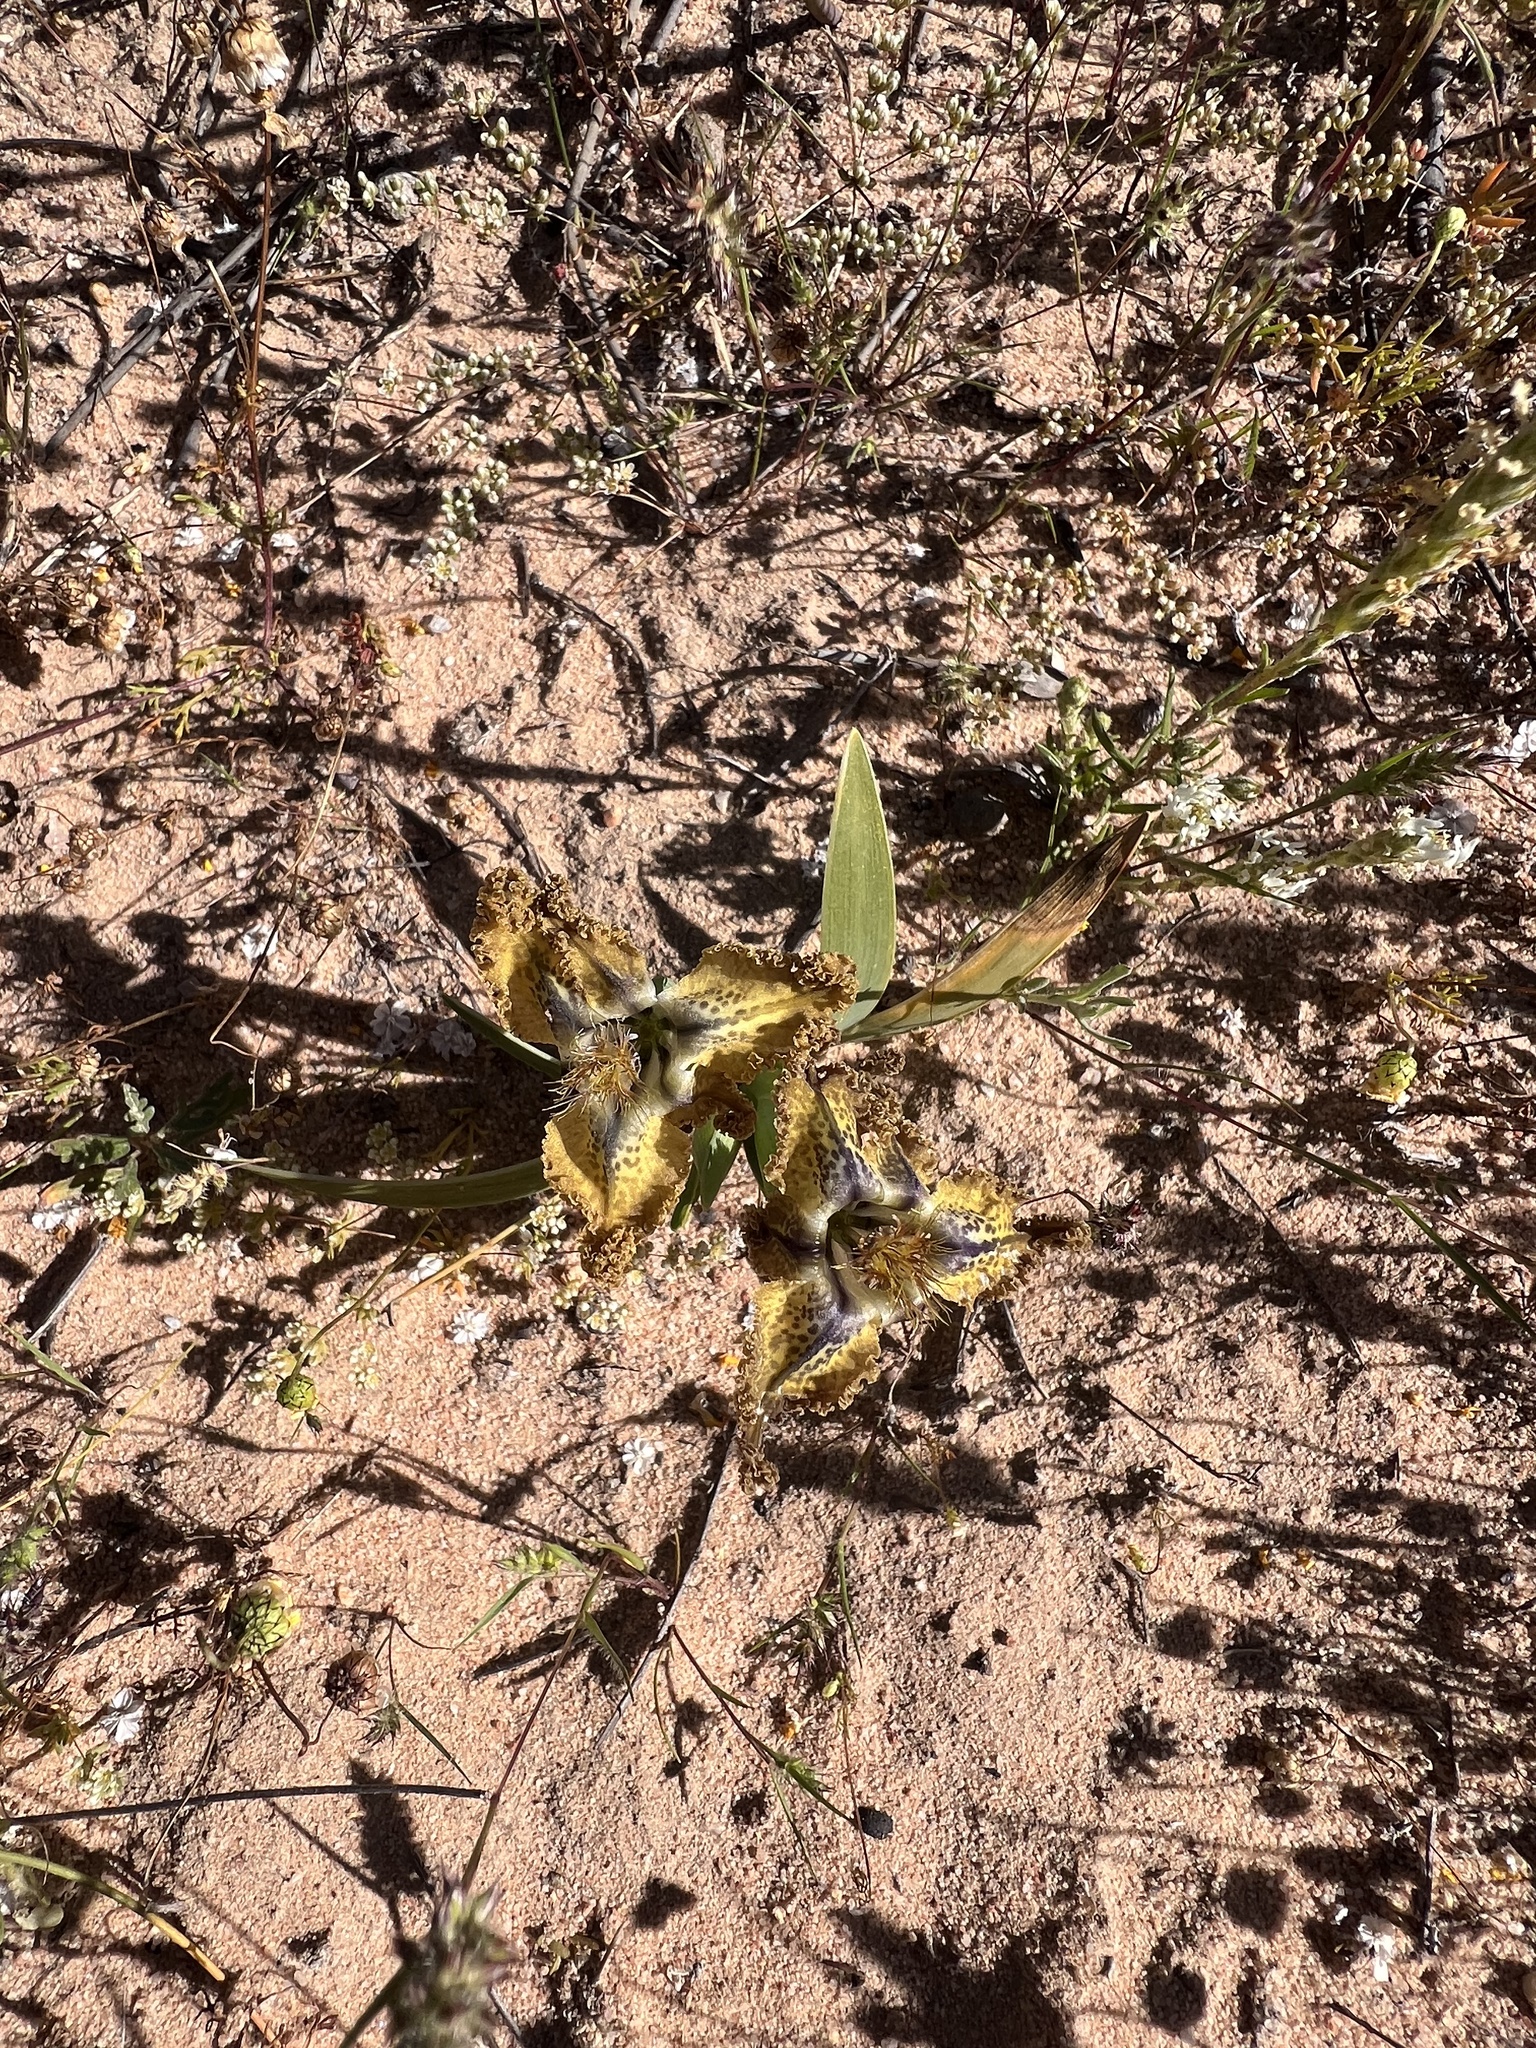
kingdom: Plantae
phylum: Tracheophyta
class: Liliopsida
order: Asparagales
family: Iridaceae
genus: Ferraria
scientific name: Ferraria variabilis
